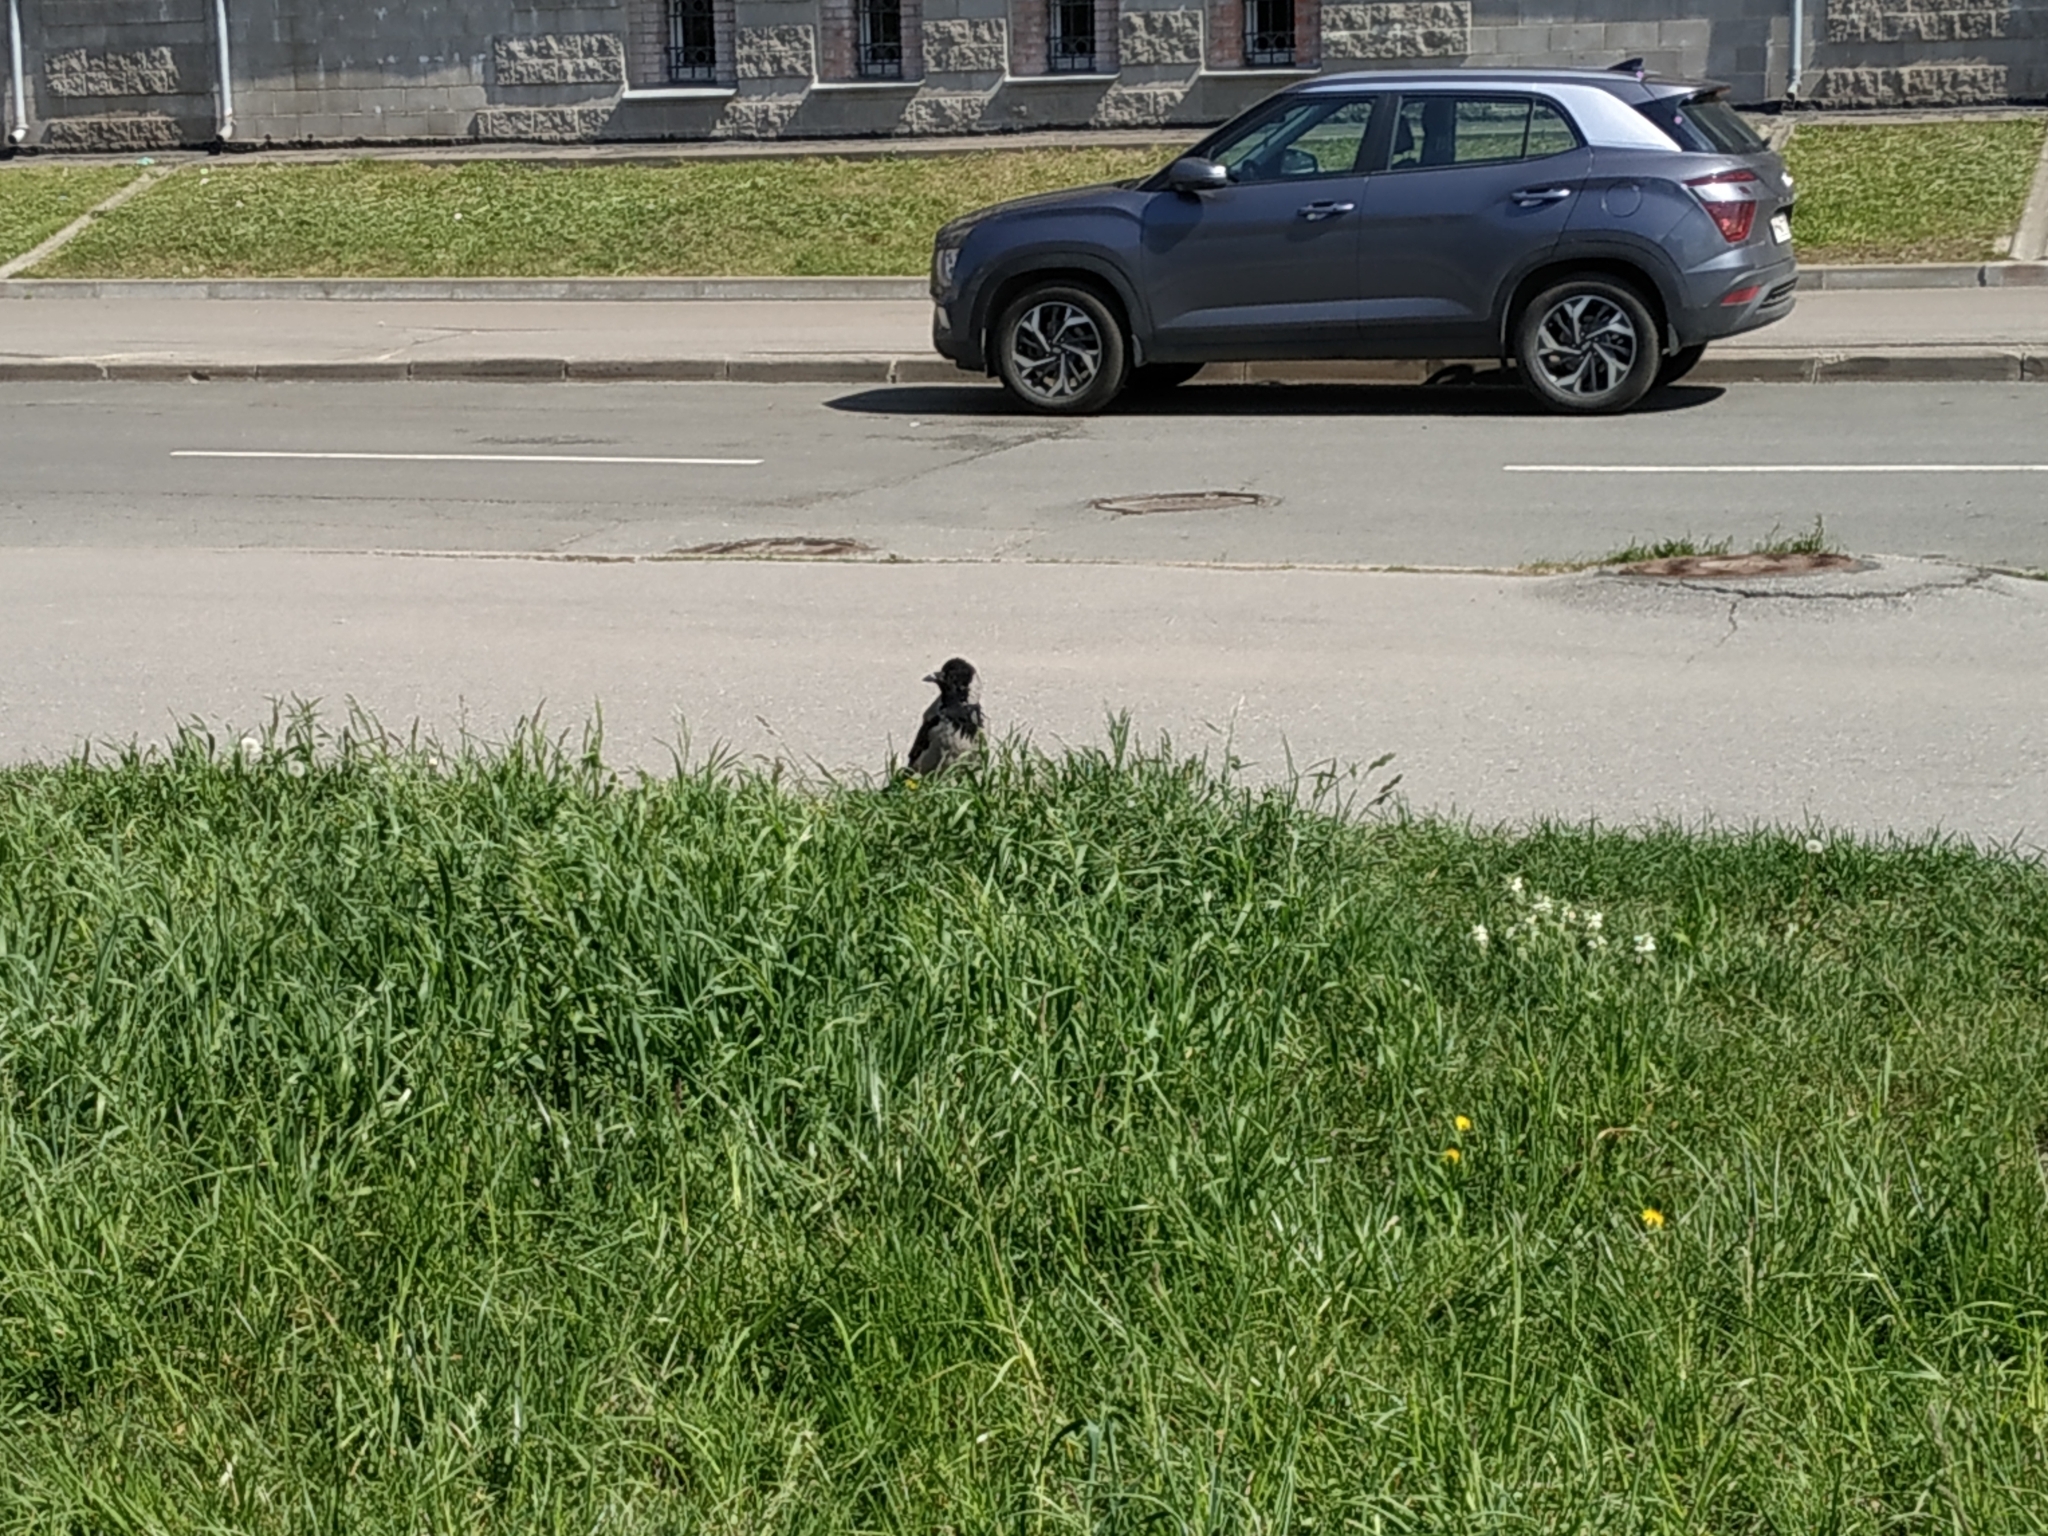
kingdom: Animalia
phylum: Chordata
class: Aves
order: Passeriformes
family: Corvidae
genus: Corvus
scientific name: Corvus cornix
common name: Hooded crow
